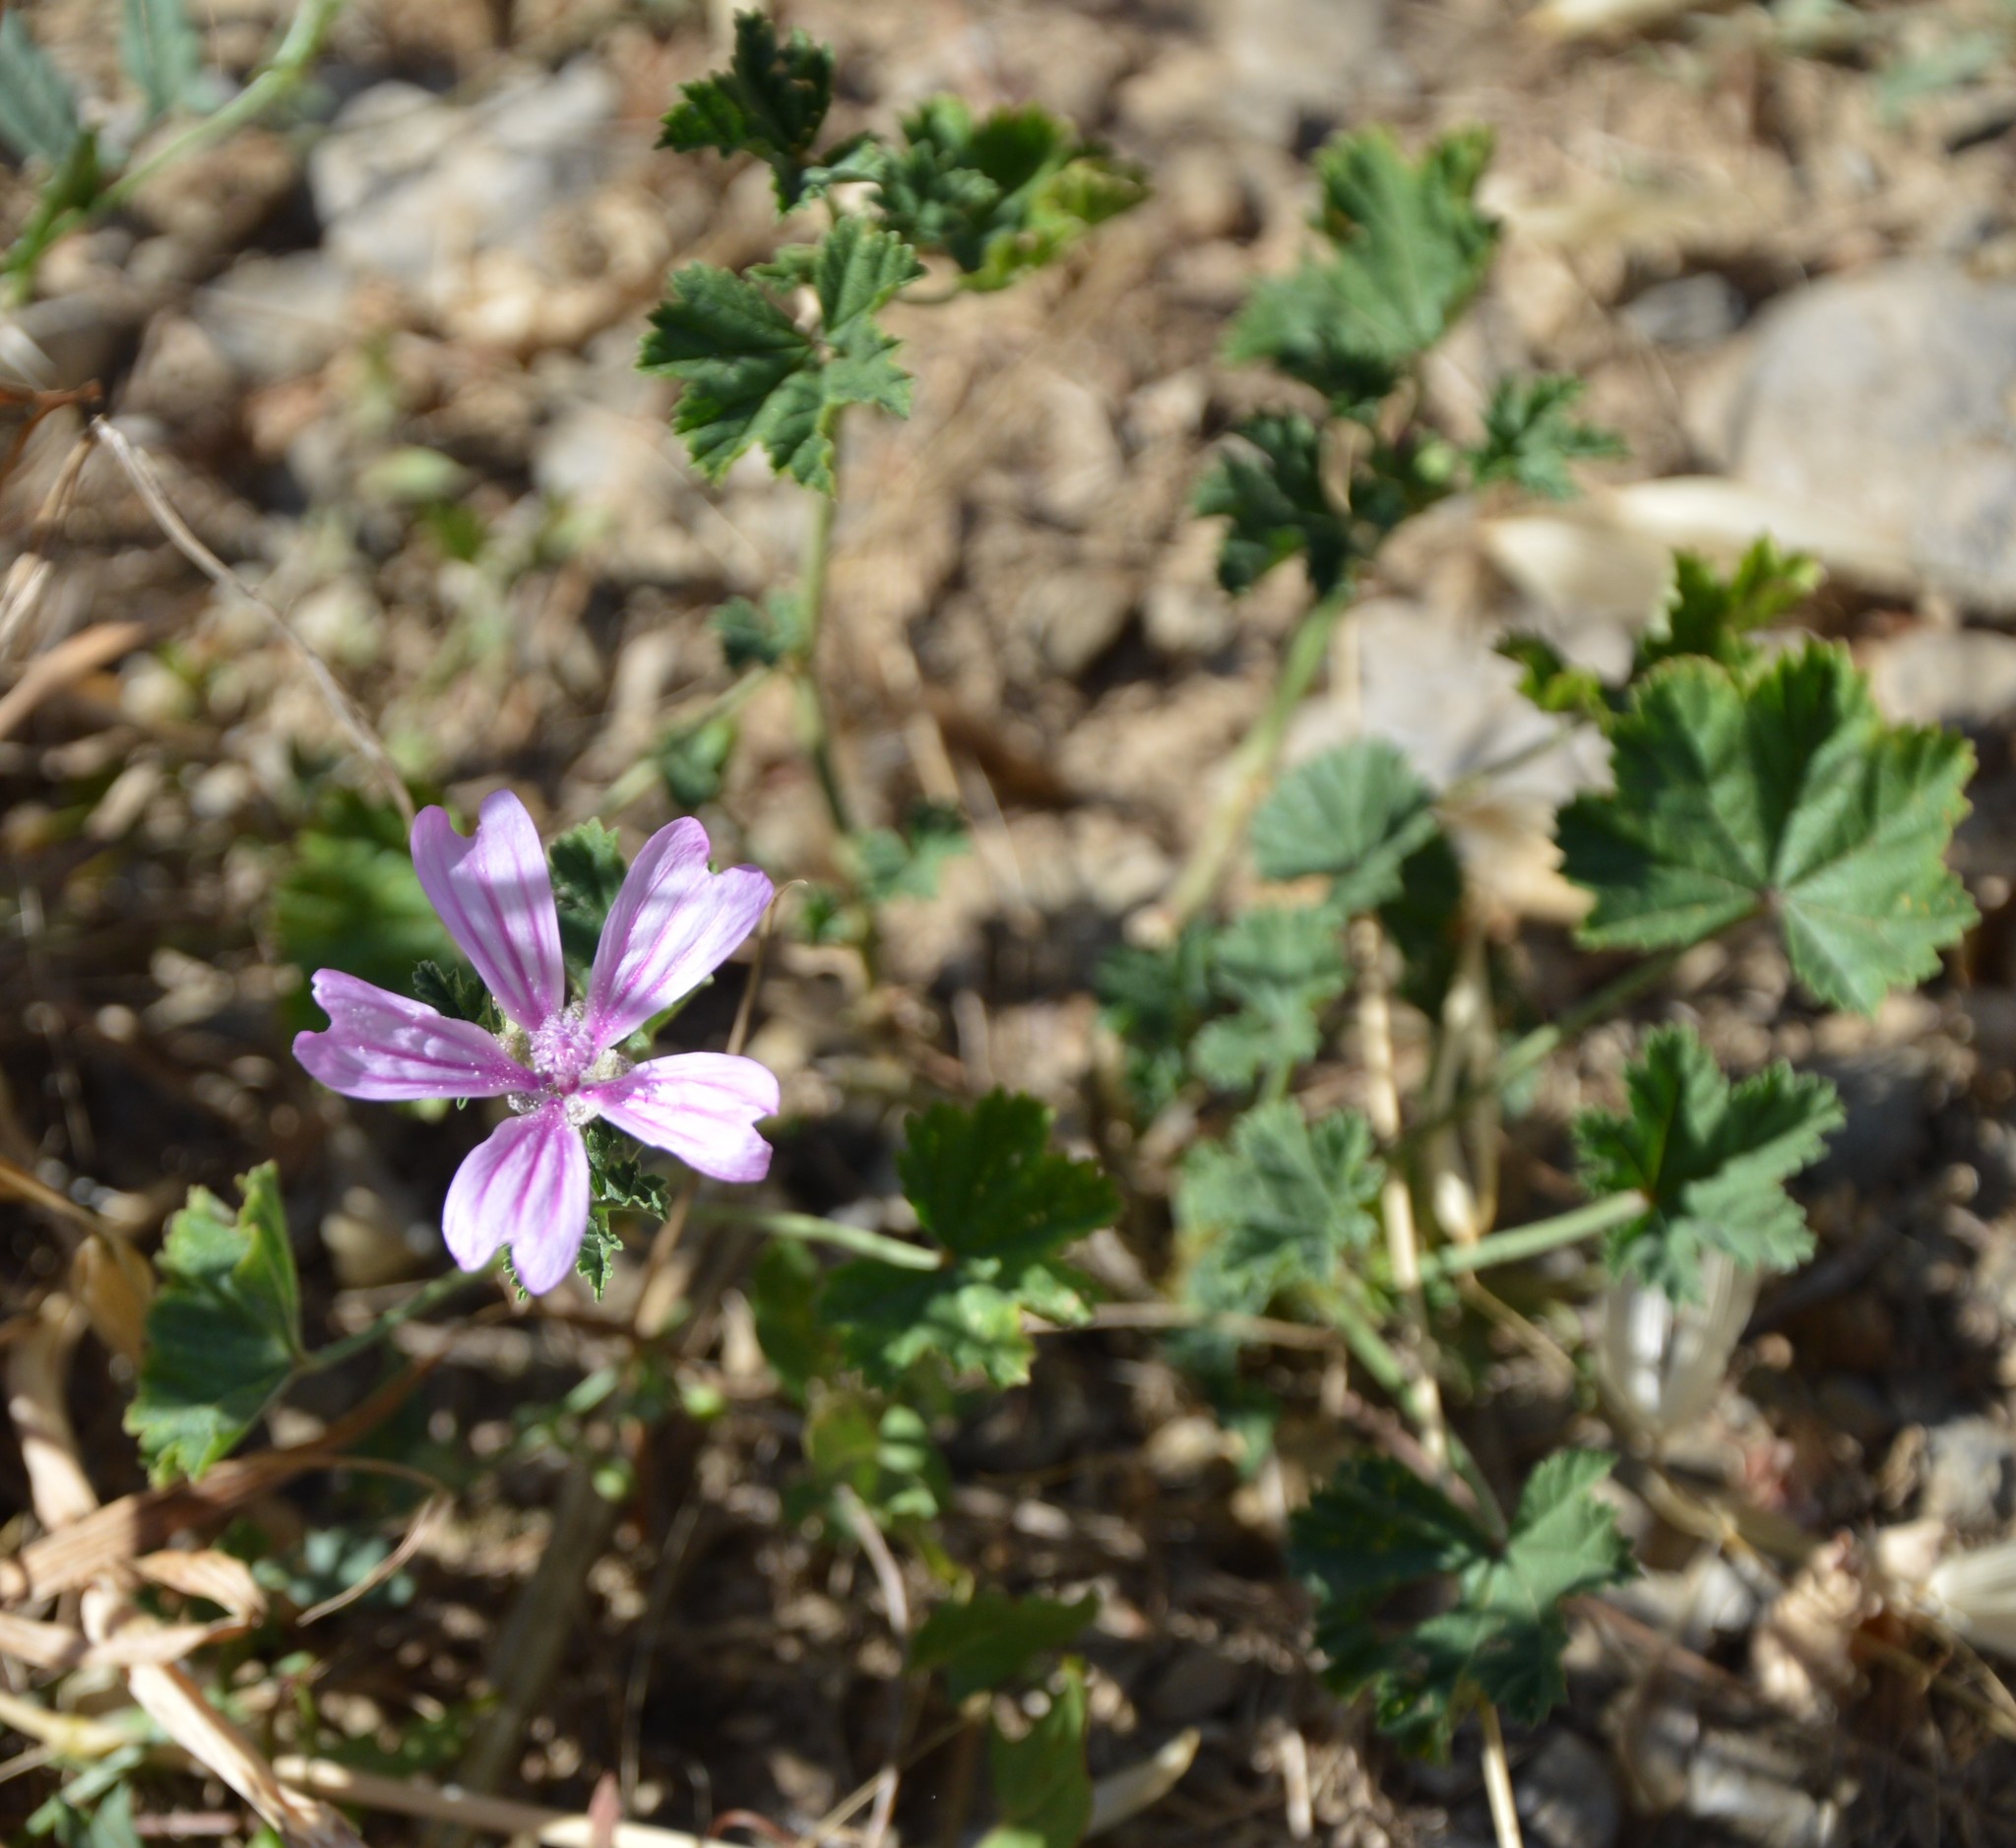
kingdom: Plantae
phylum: Tracheophyta
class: Magnoliopsida
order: Malvales
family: Malvaceae
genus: Malva
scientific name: Malva sylvestris
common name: Common mallow
